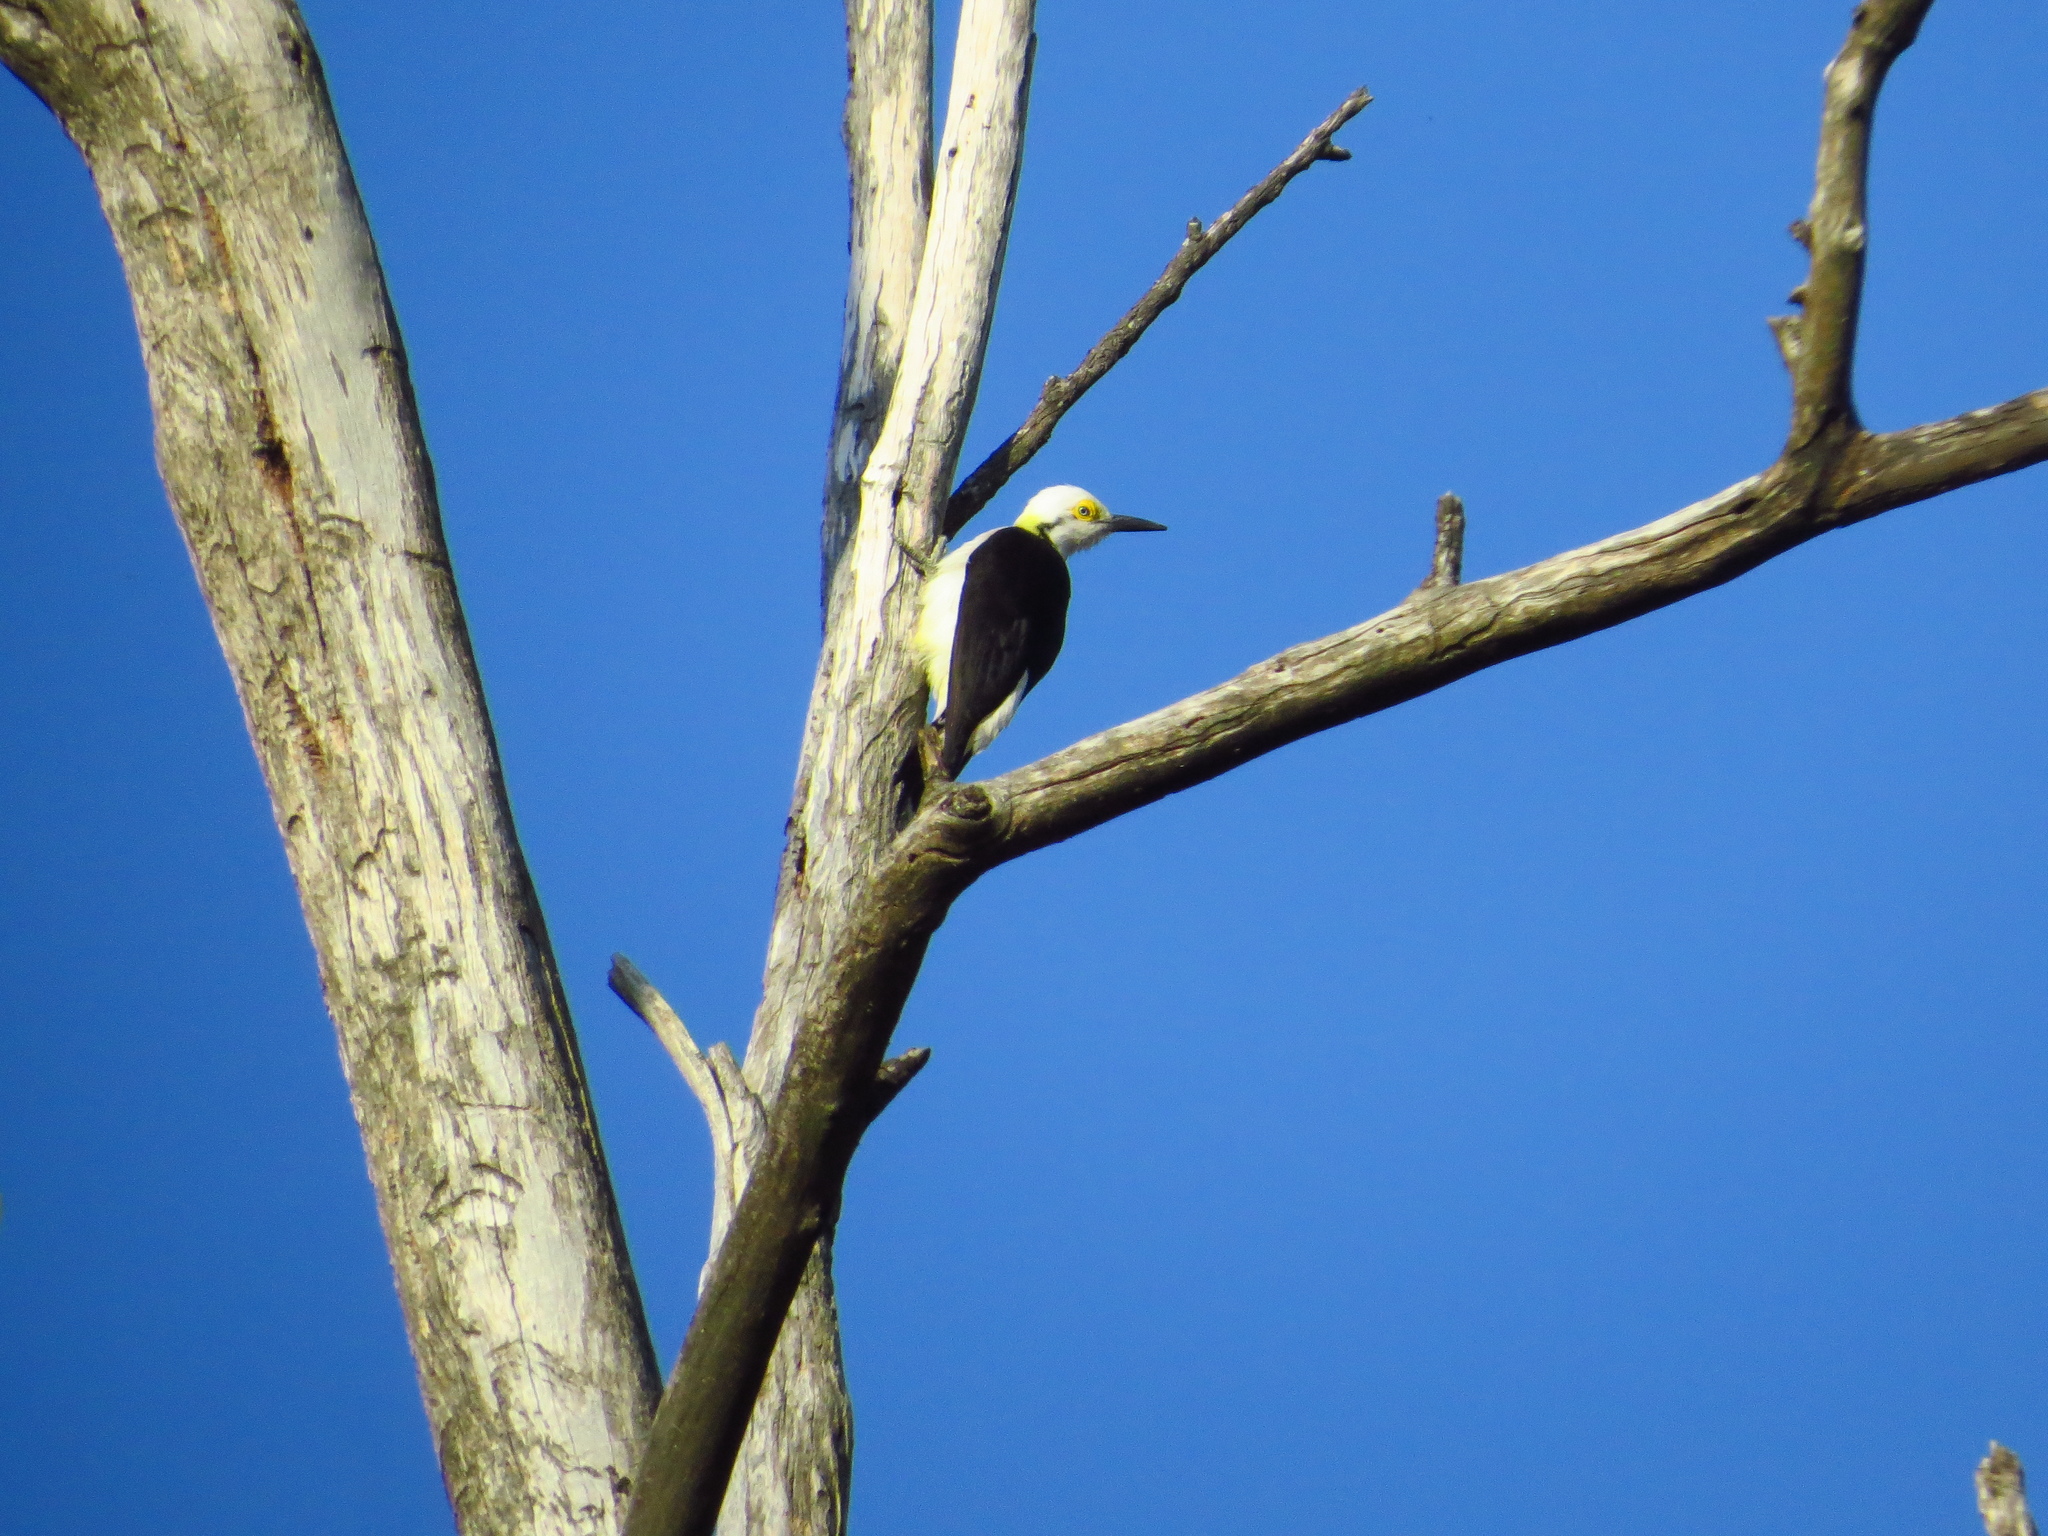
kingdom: Animalia
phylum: Chordata
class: Aves
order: Piciformes
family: Picidae
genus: Melanerpes
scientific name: Melanerpes candidus
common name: White woodpecker
